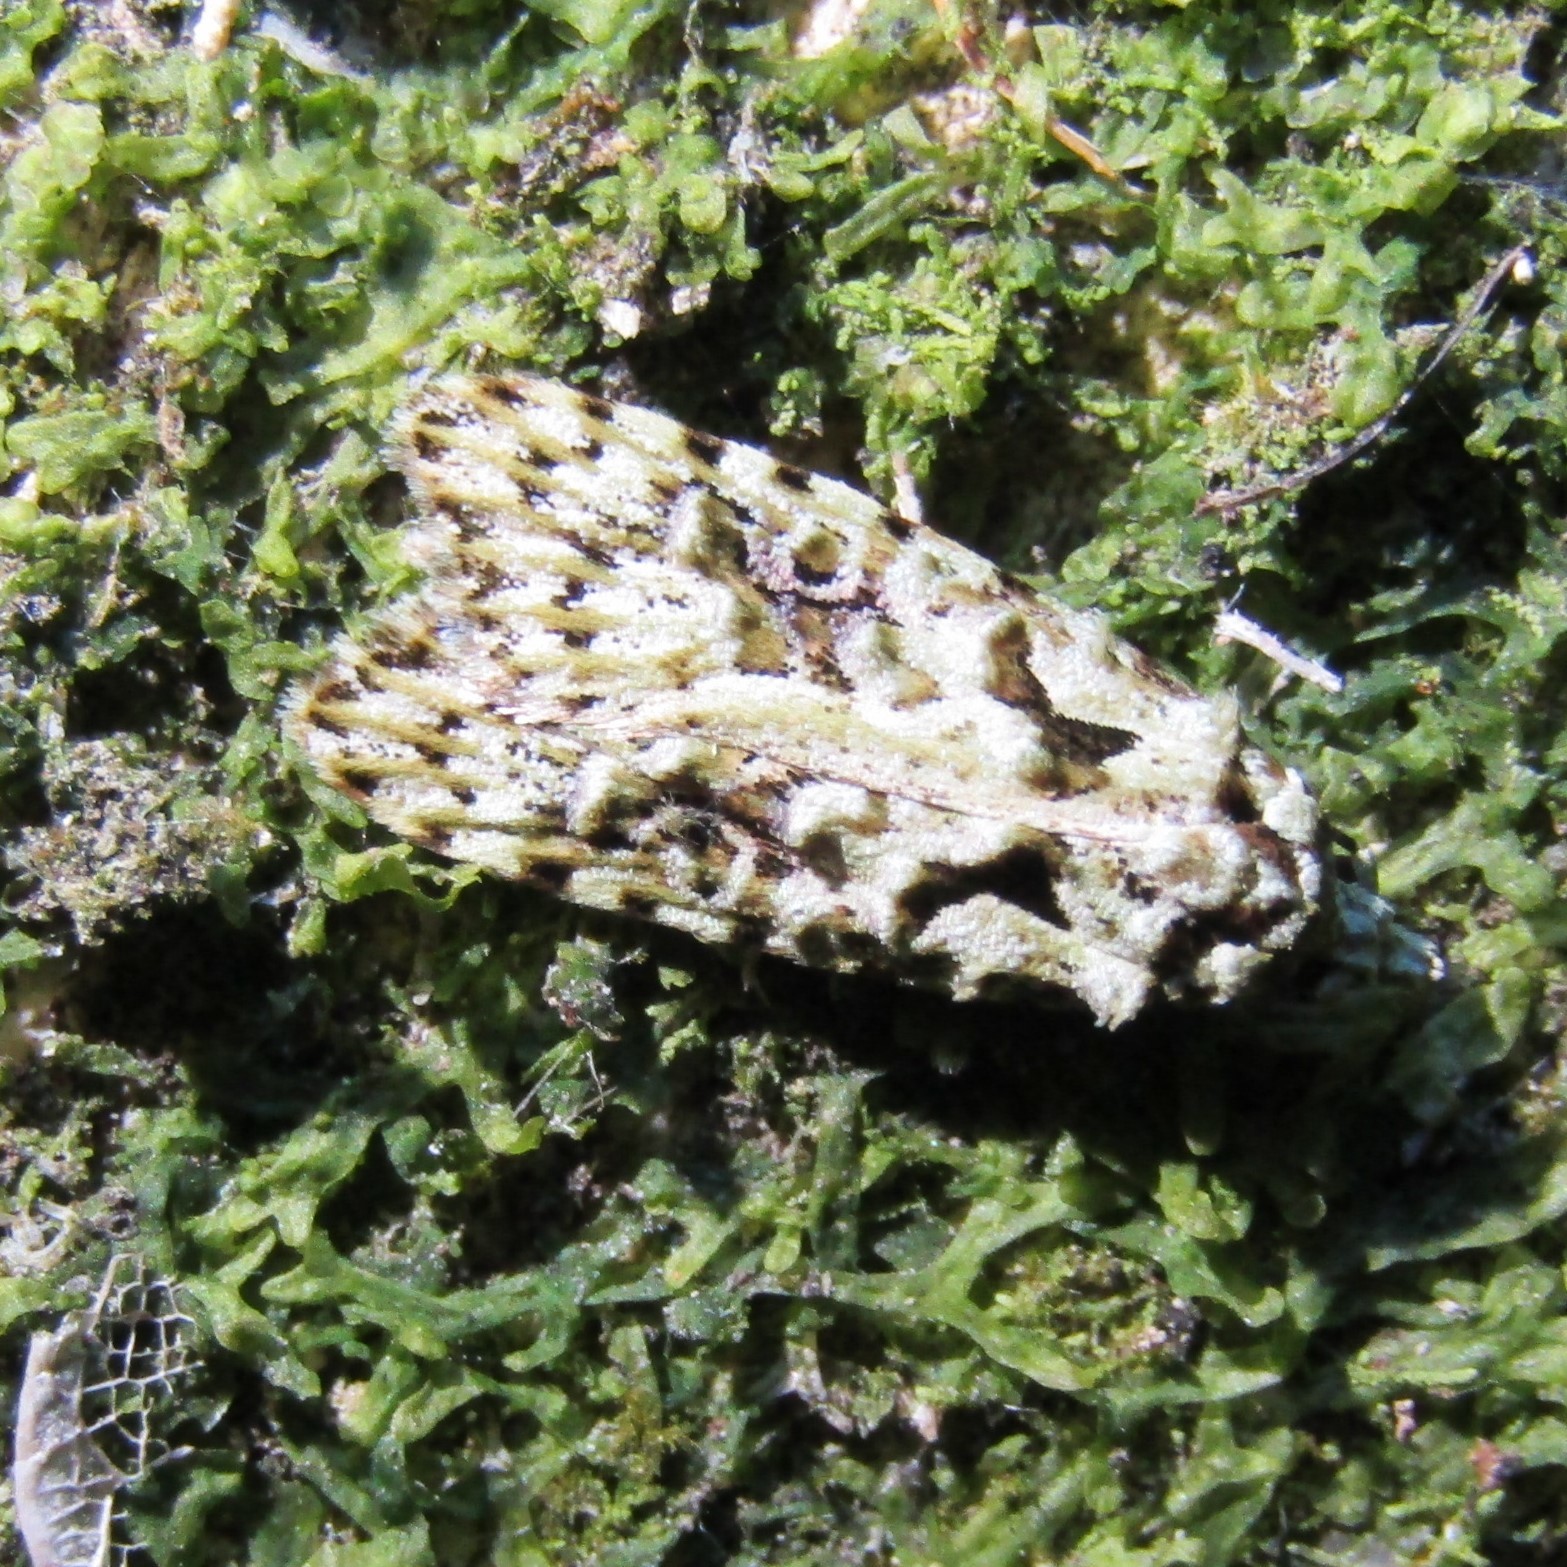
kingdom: Animalia
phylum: Arthropoda
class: Insecta
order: Lepidoptera
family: Carposinidae
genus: Carposina
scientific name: Carposina Heterocrossa eriphylla
